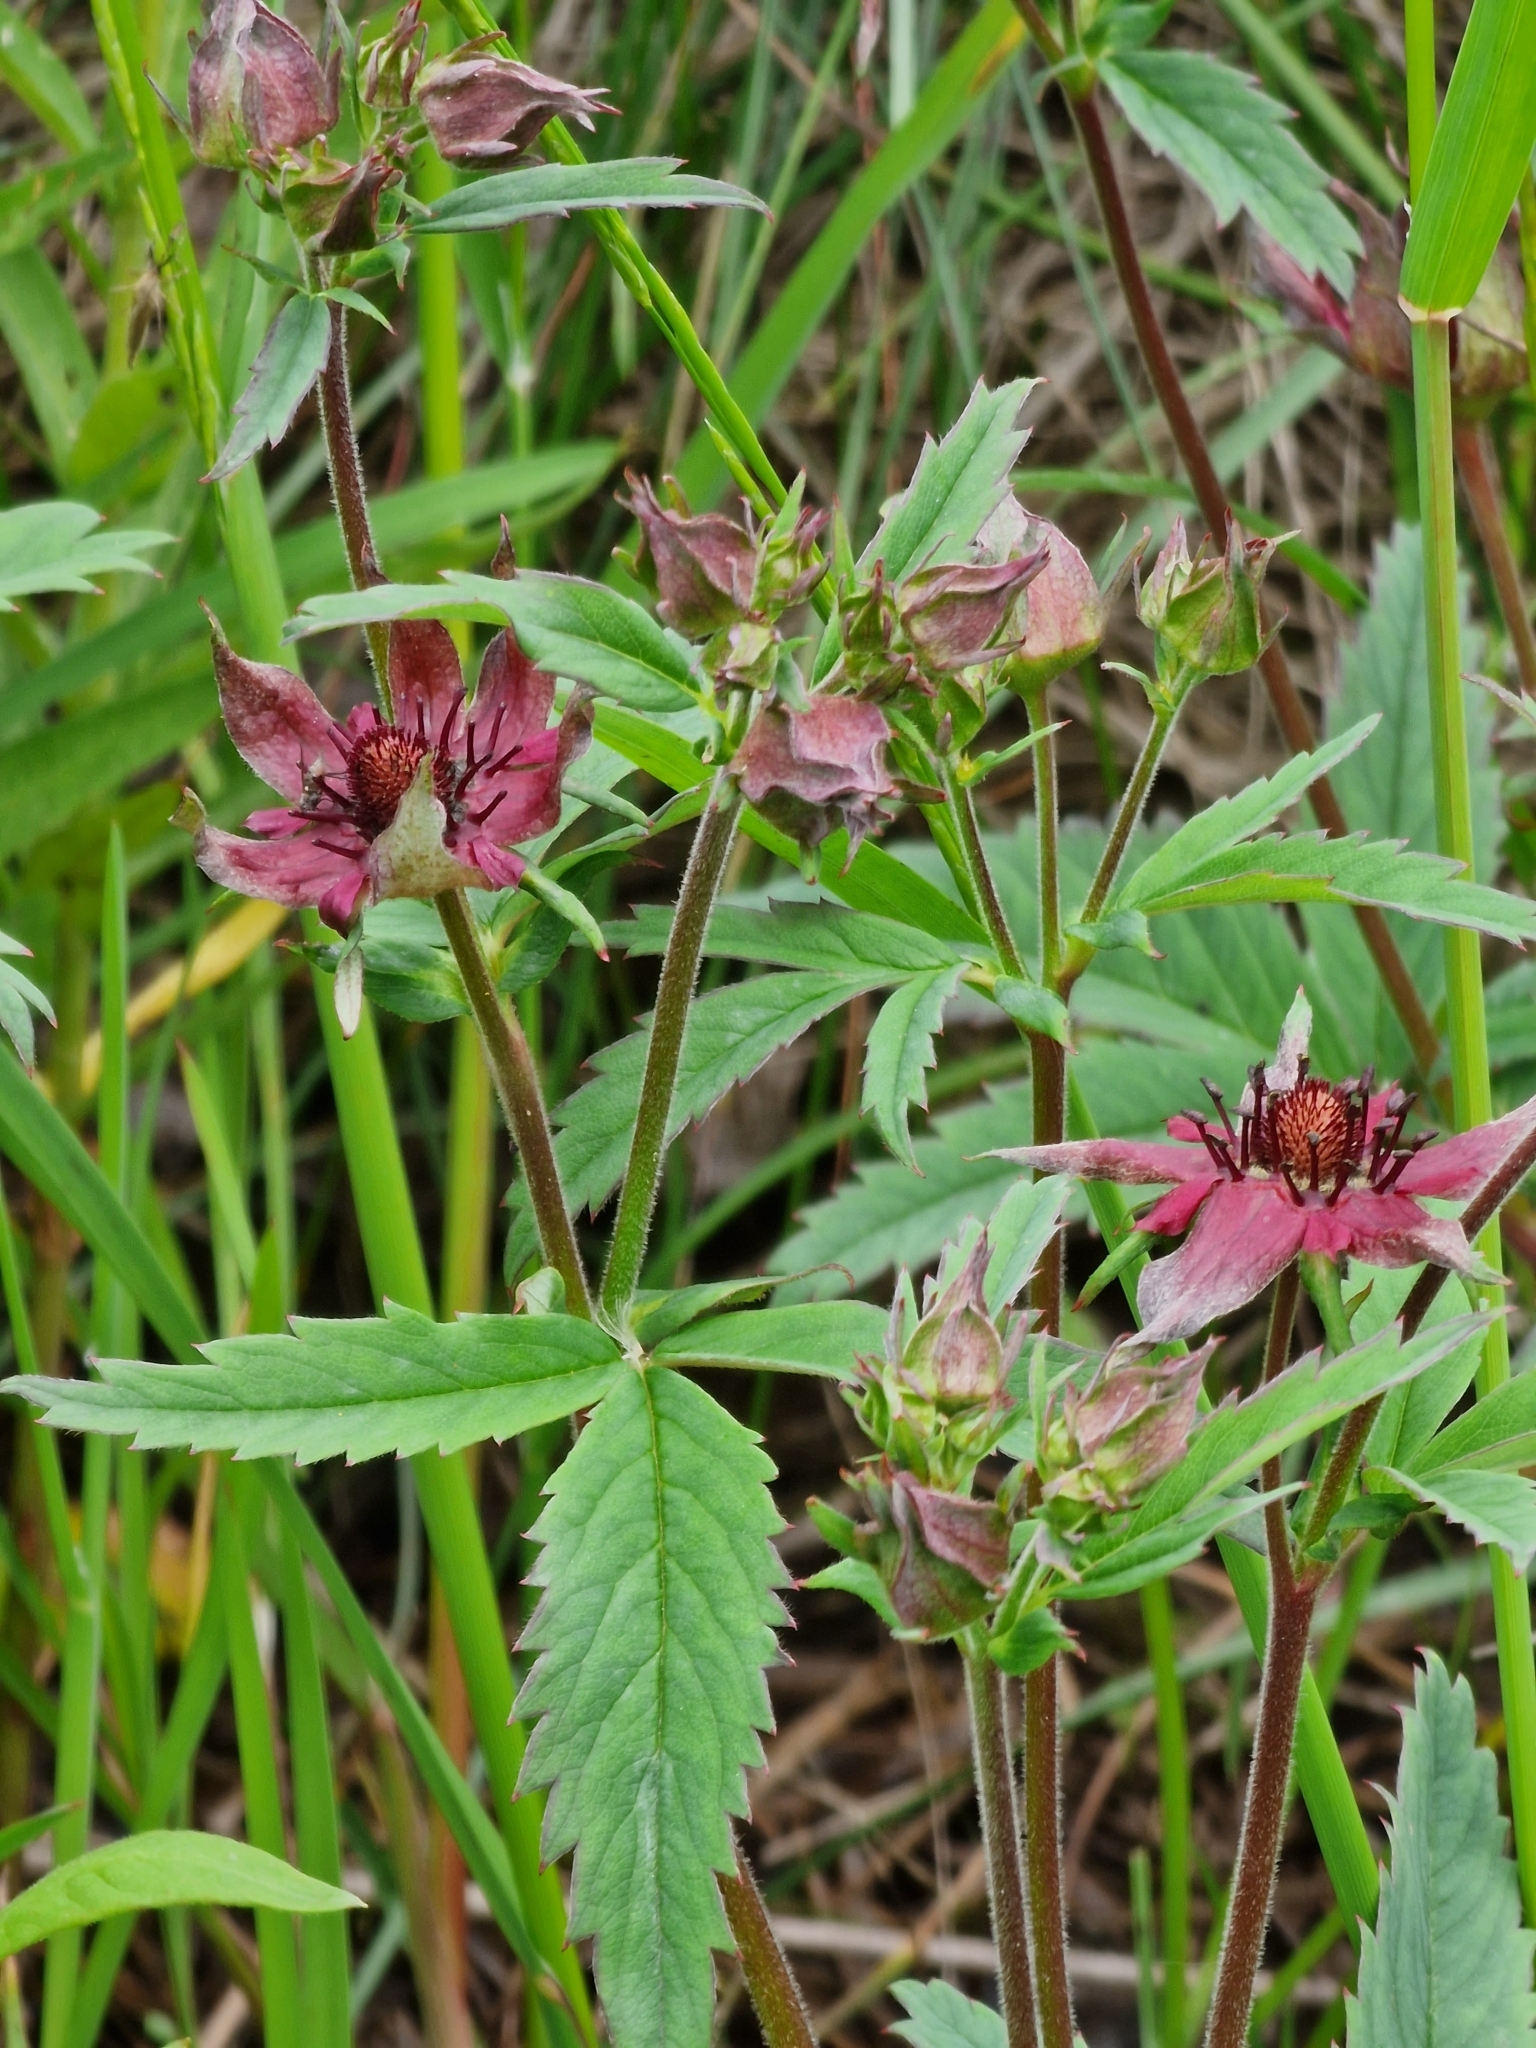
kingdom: Plantae
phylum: Tracheophyta
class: Magnoliopsida
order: Rosales
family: Rosaceae
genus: Comarum
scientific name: Comarum palustre
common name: Marsh cinquefoil
